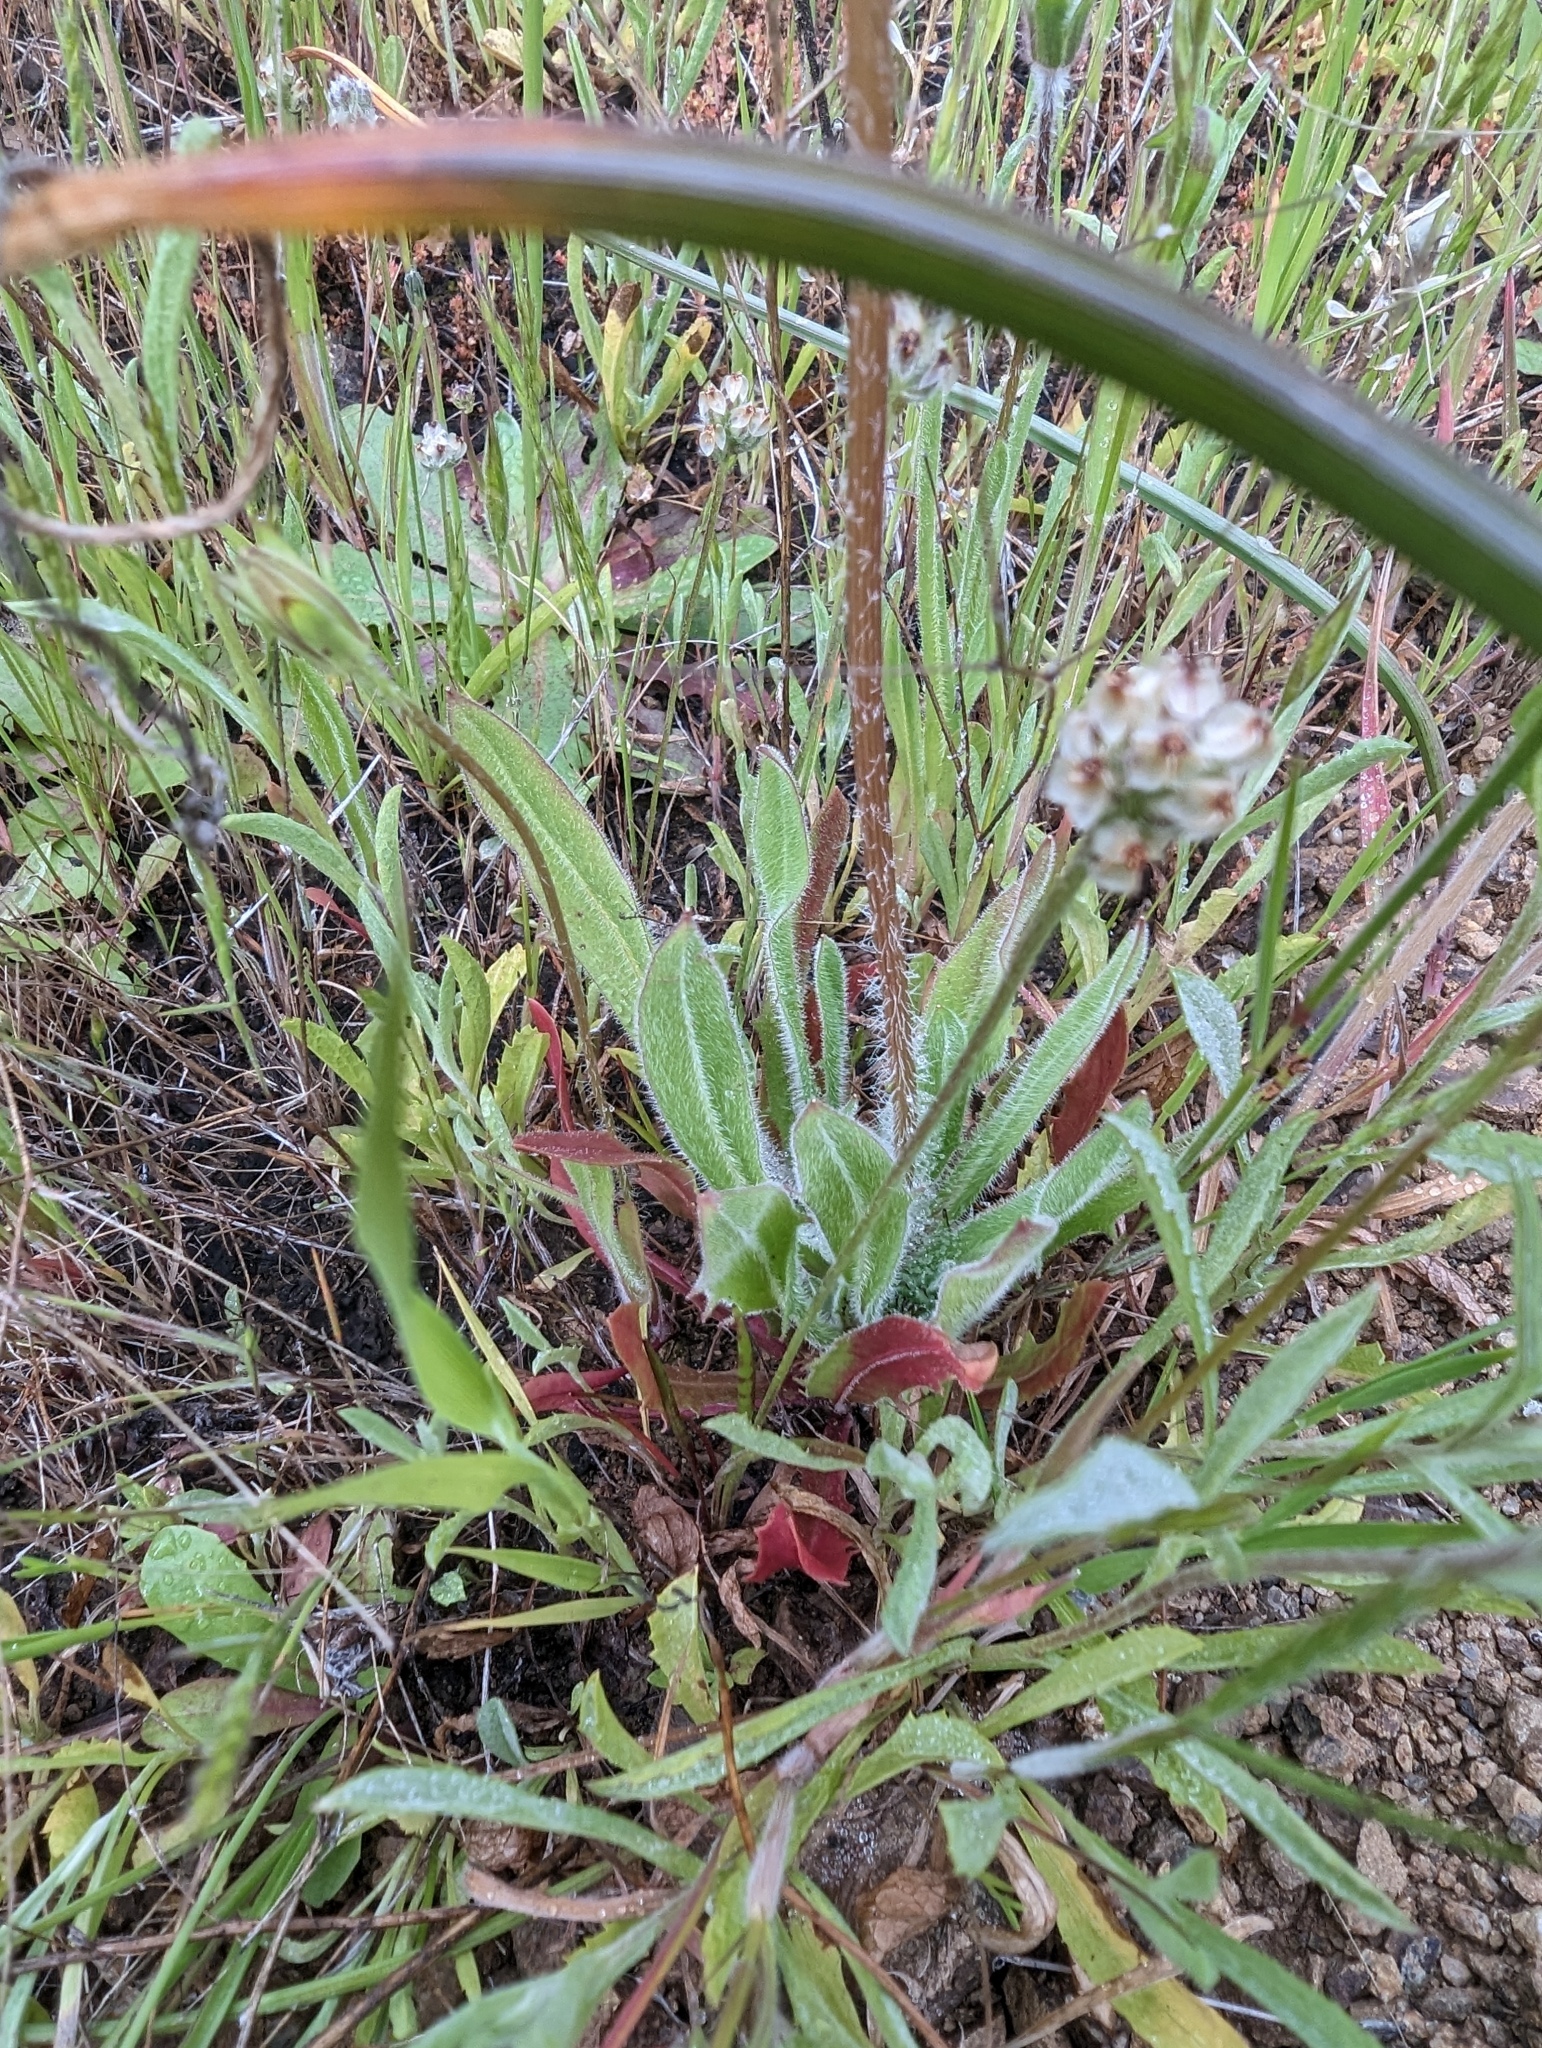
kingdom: Plantae
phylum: Tracheophyta
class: Magnoliopsida
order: Asterales
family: Asteraceae
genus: Agoseris
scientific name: Agoseris heterophylla
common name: Annual agoseris
